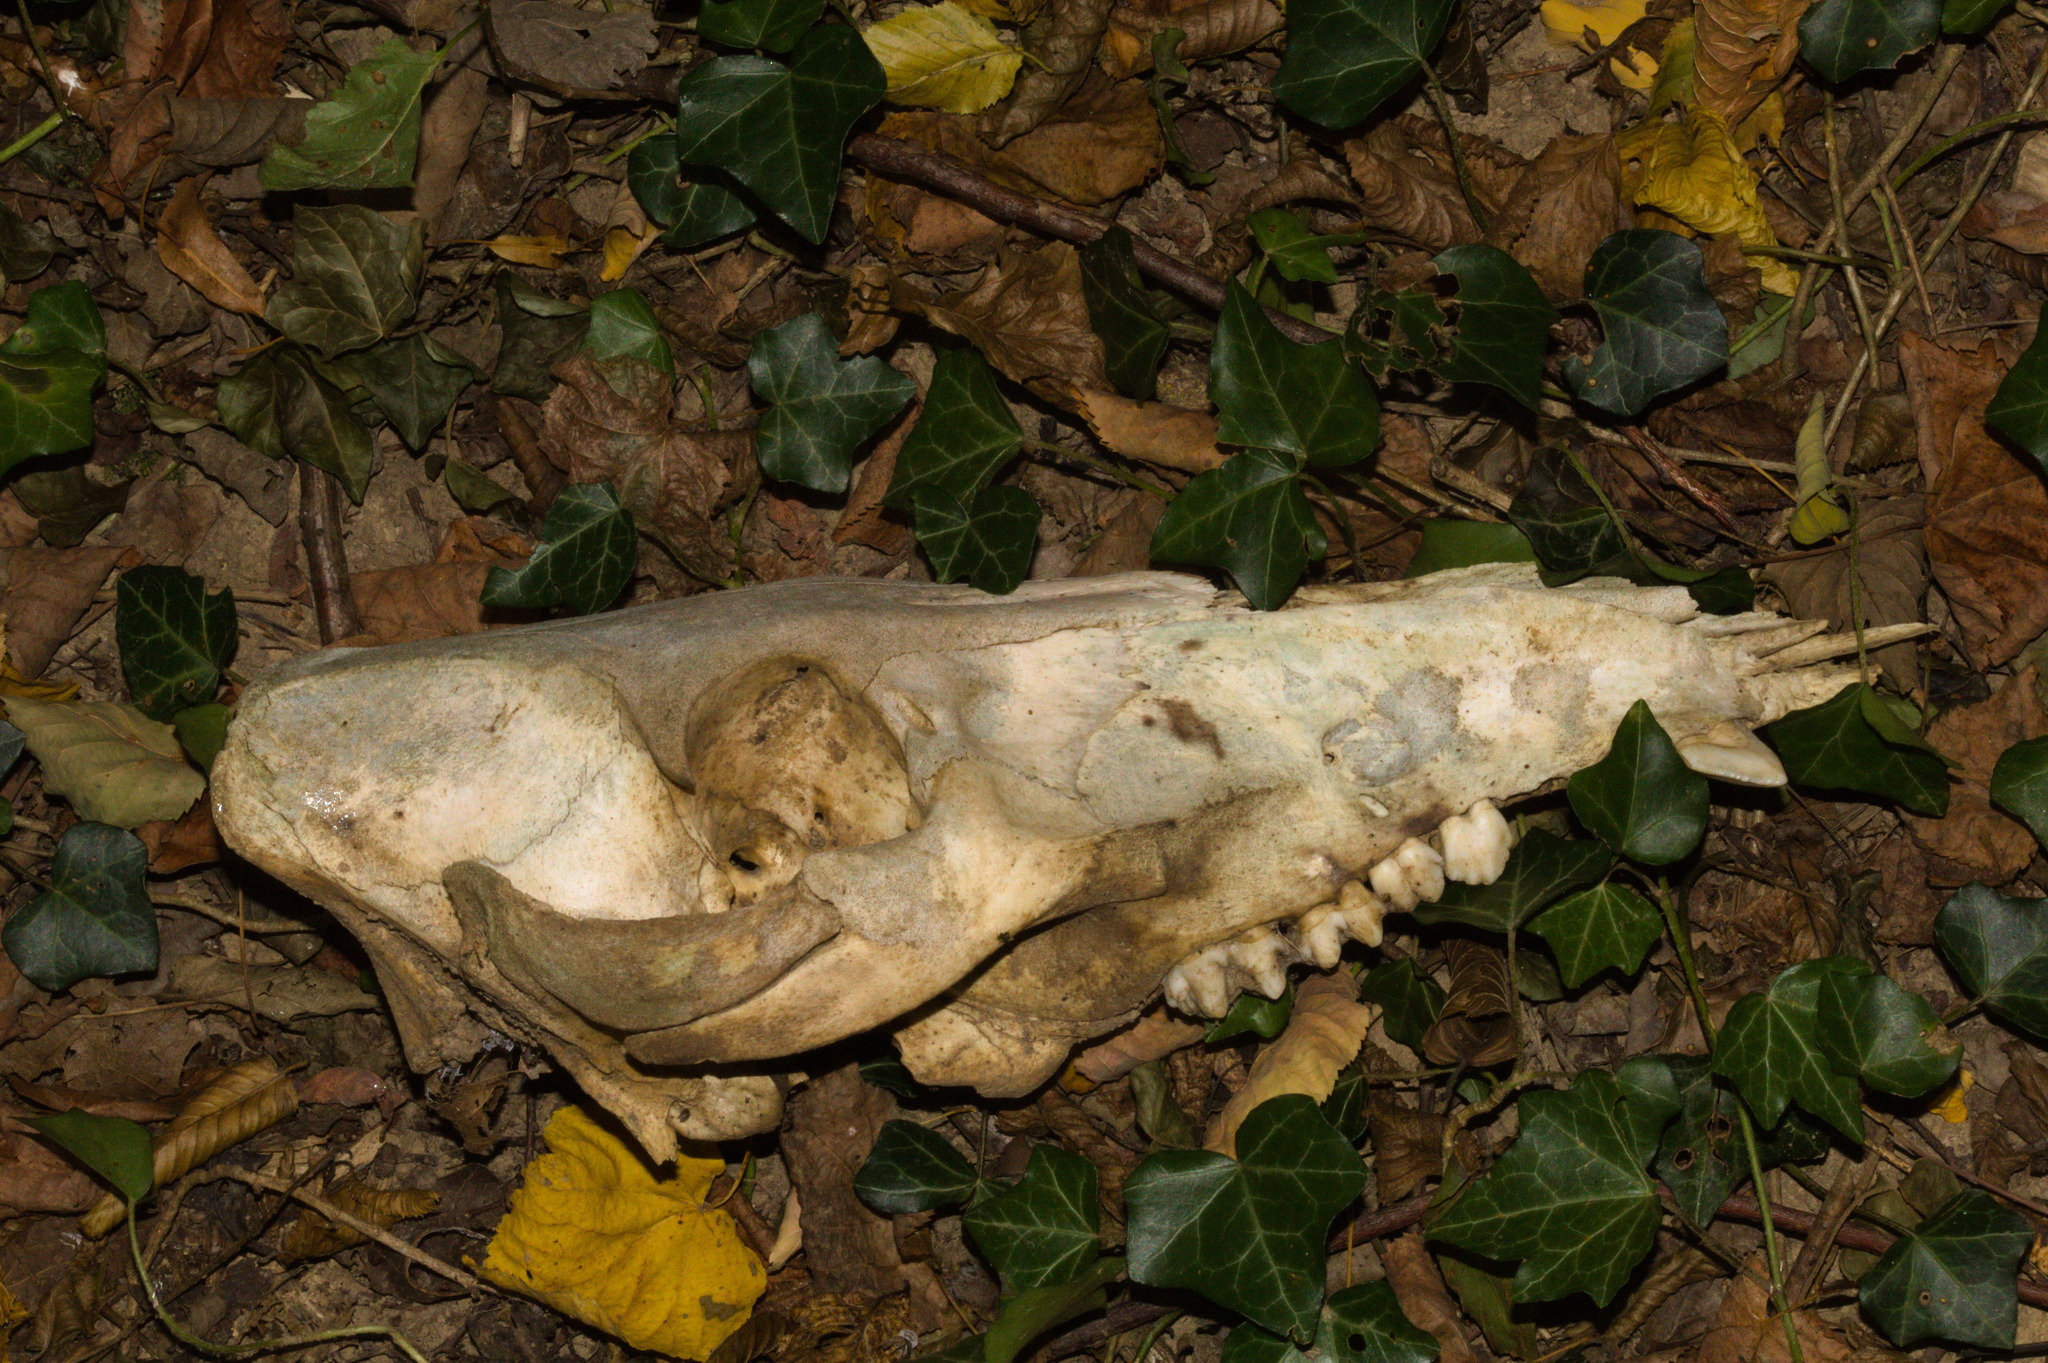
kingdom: Animalia
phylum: Chordata
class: Mammalia
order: Artiodactyla
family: Suidae
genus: Sus
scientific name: Sus scrofa
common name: Wild boar
